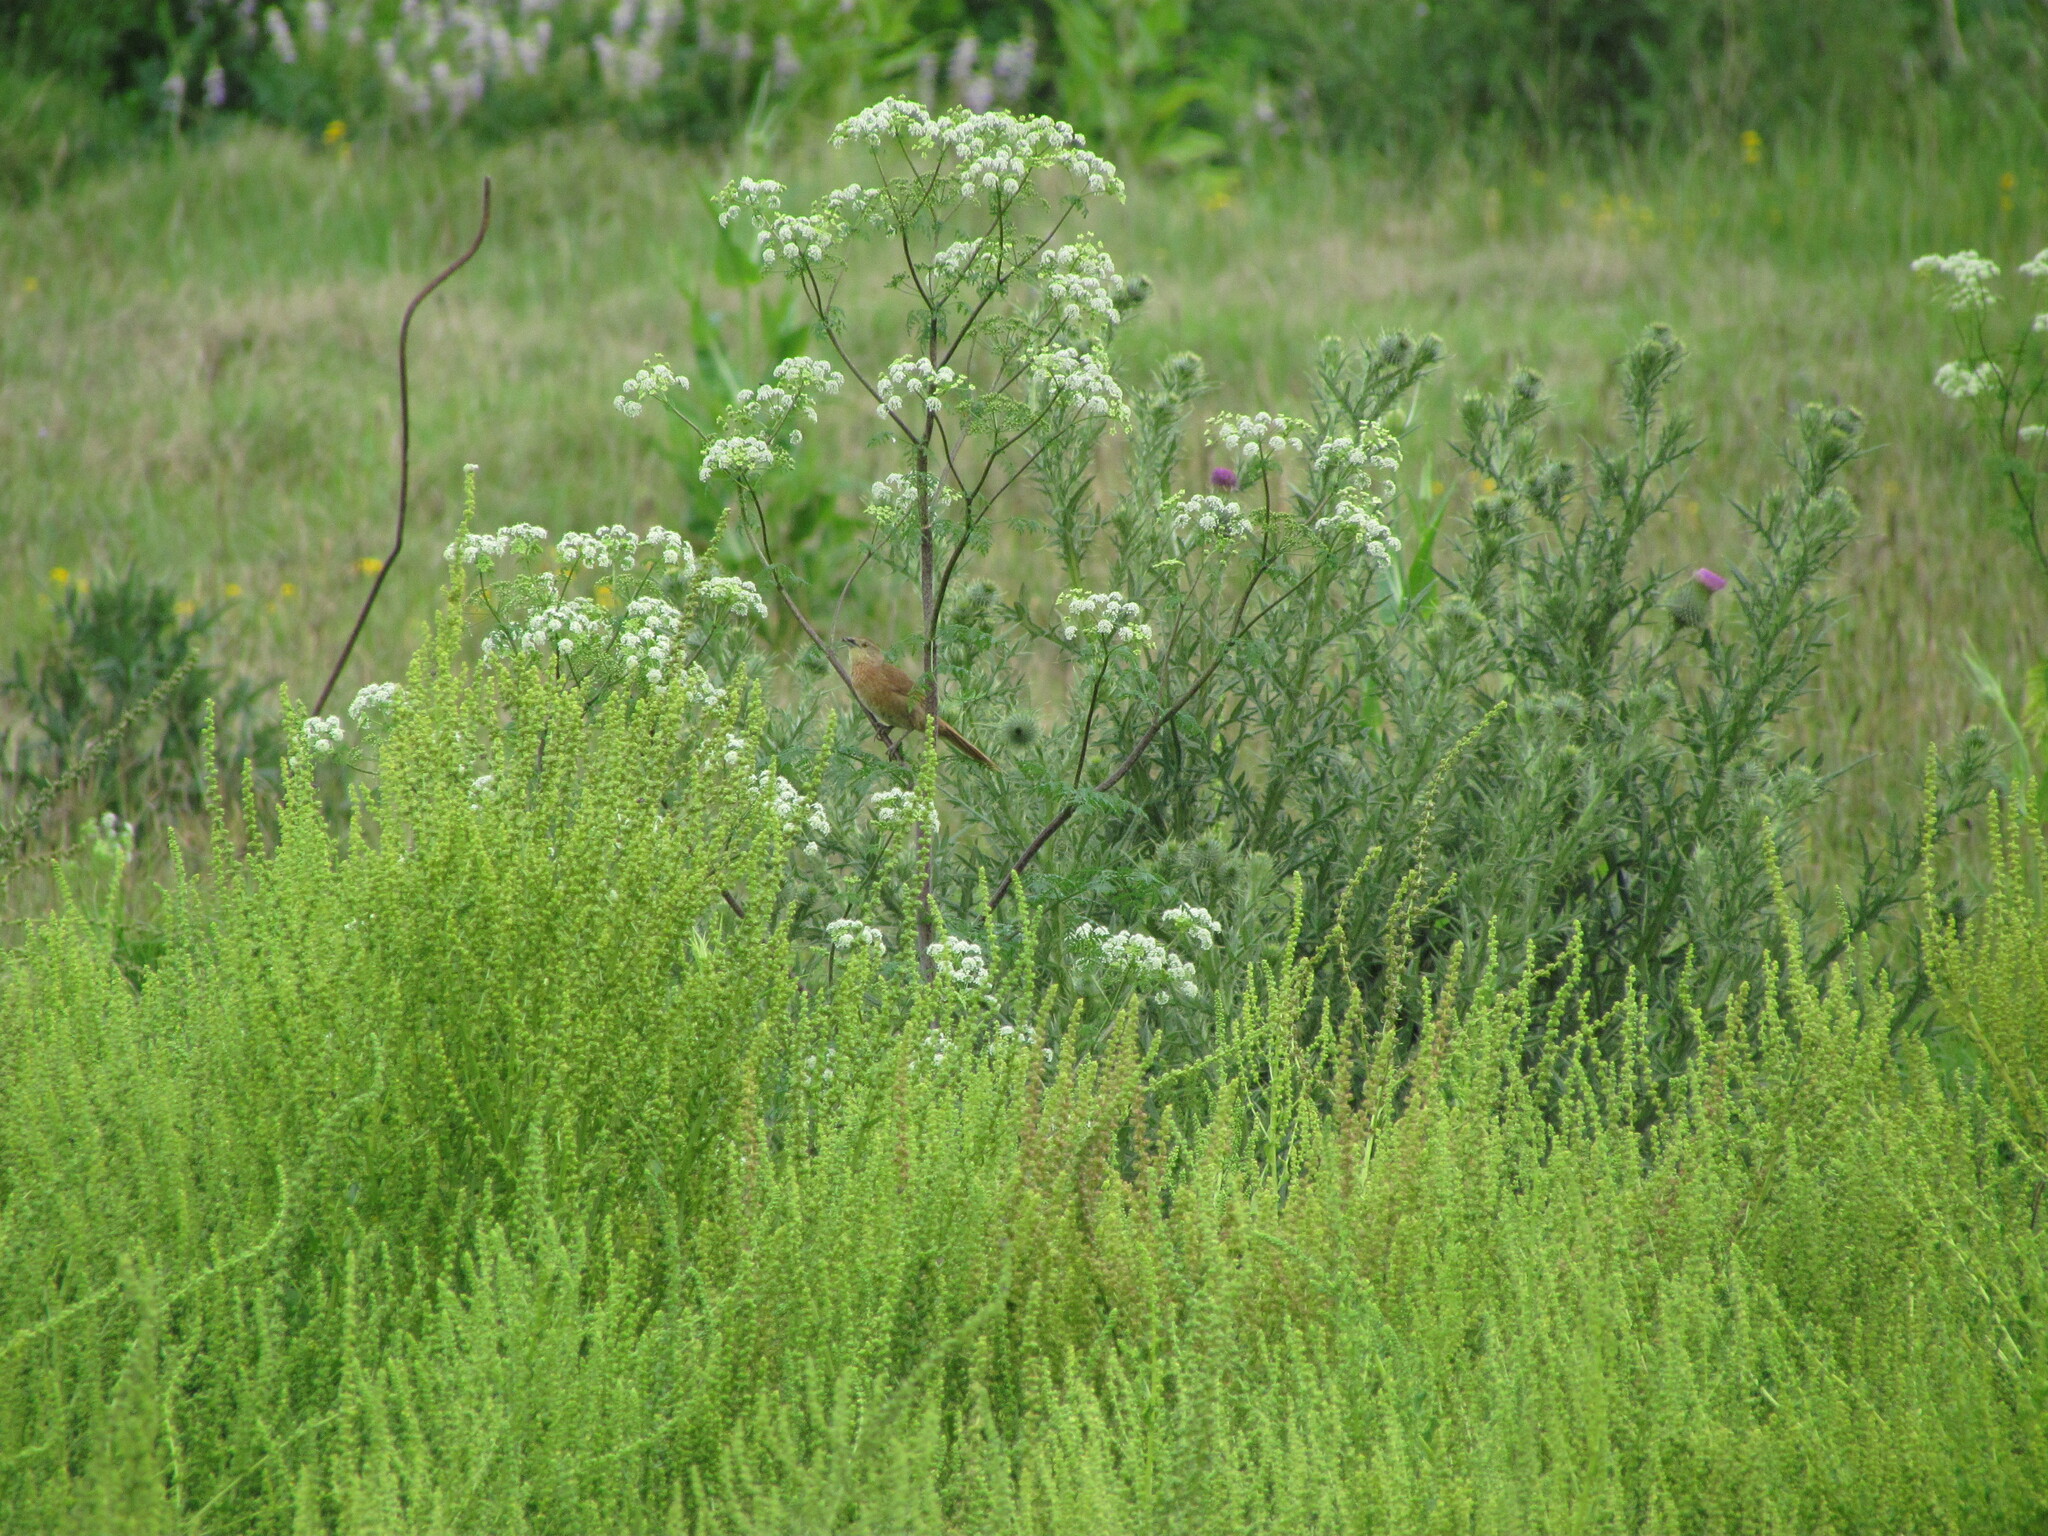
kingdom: Animalia
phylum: Chordata
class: Aves
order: Passeriformes
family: Furnariidae
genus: Phacellodomus
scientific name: Phacellodomus striaticollis
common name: Freckle-breasted thornbird
